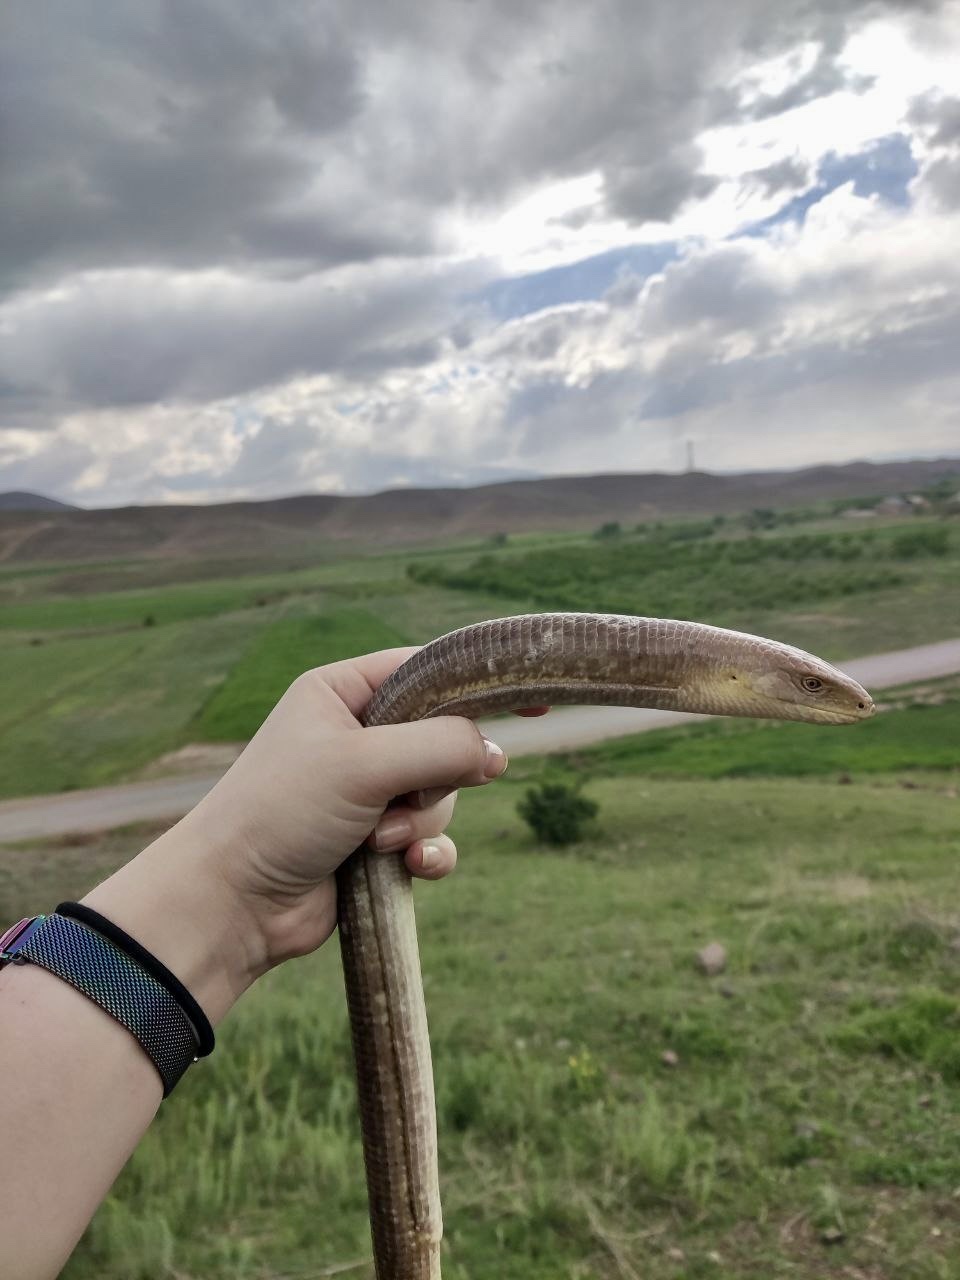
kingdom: Animalia
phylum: Chordata
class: Squamata
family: Anguidae
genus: Pseudopus
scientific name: Pseudopus apodus
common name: European glass lizard
